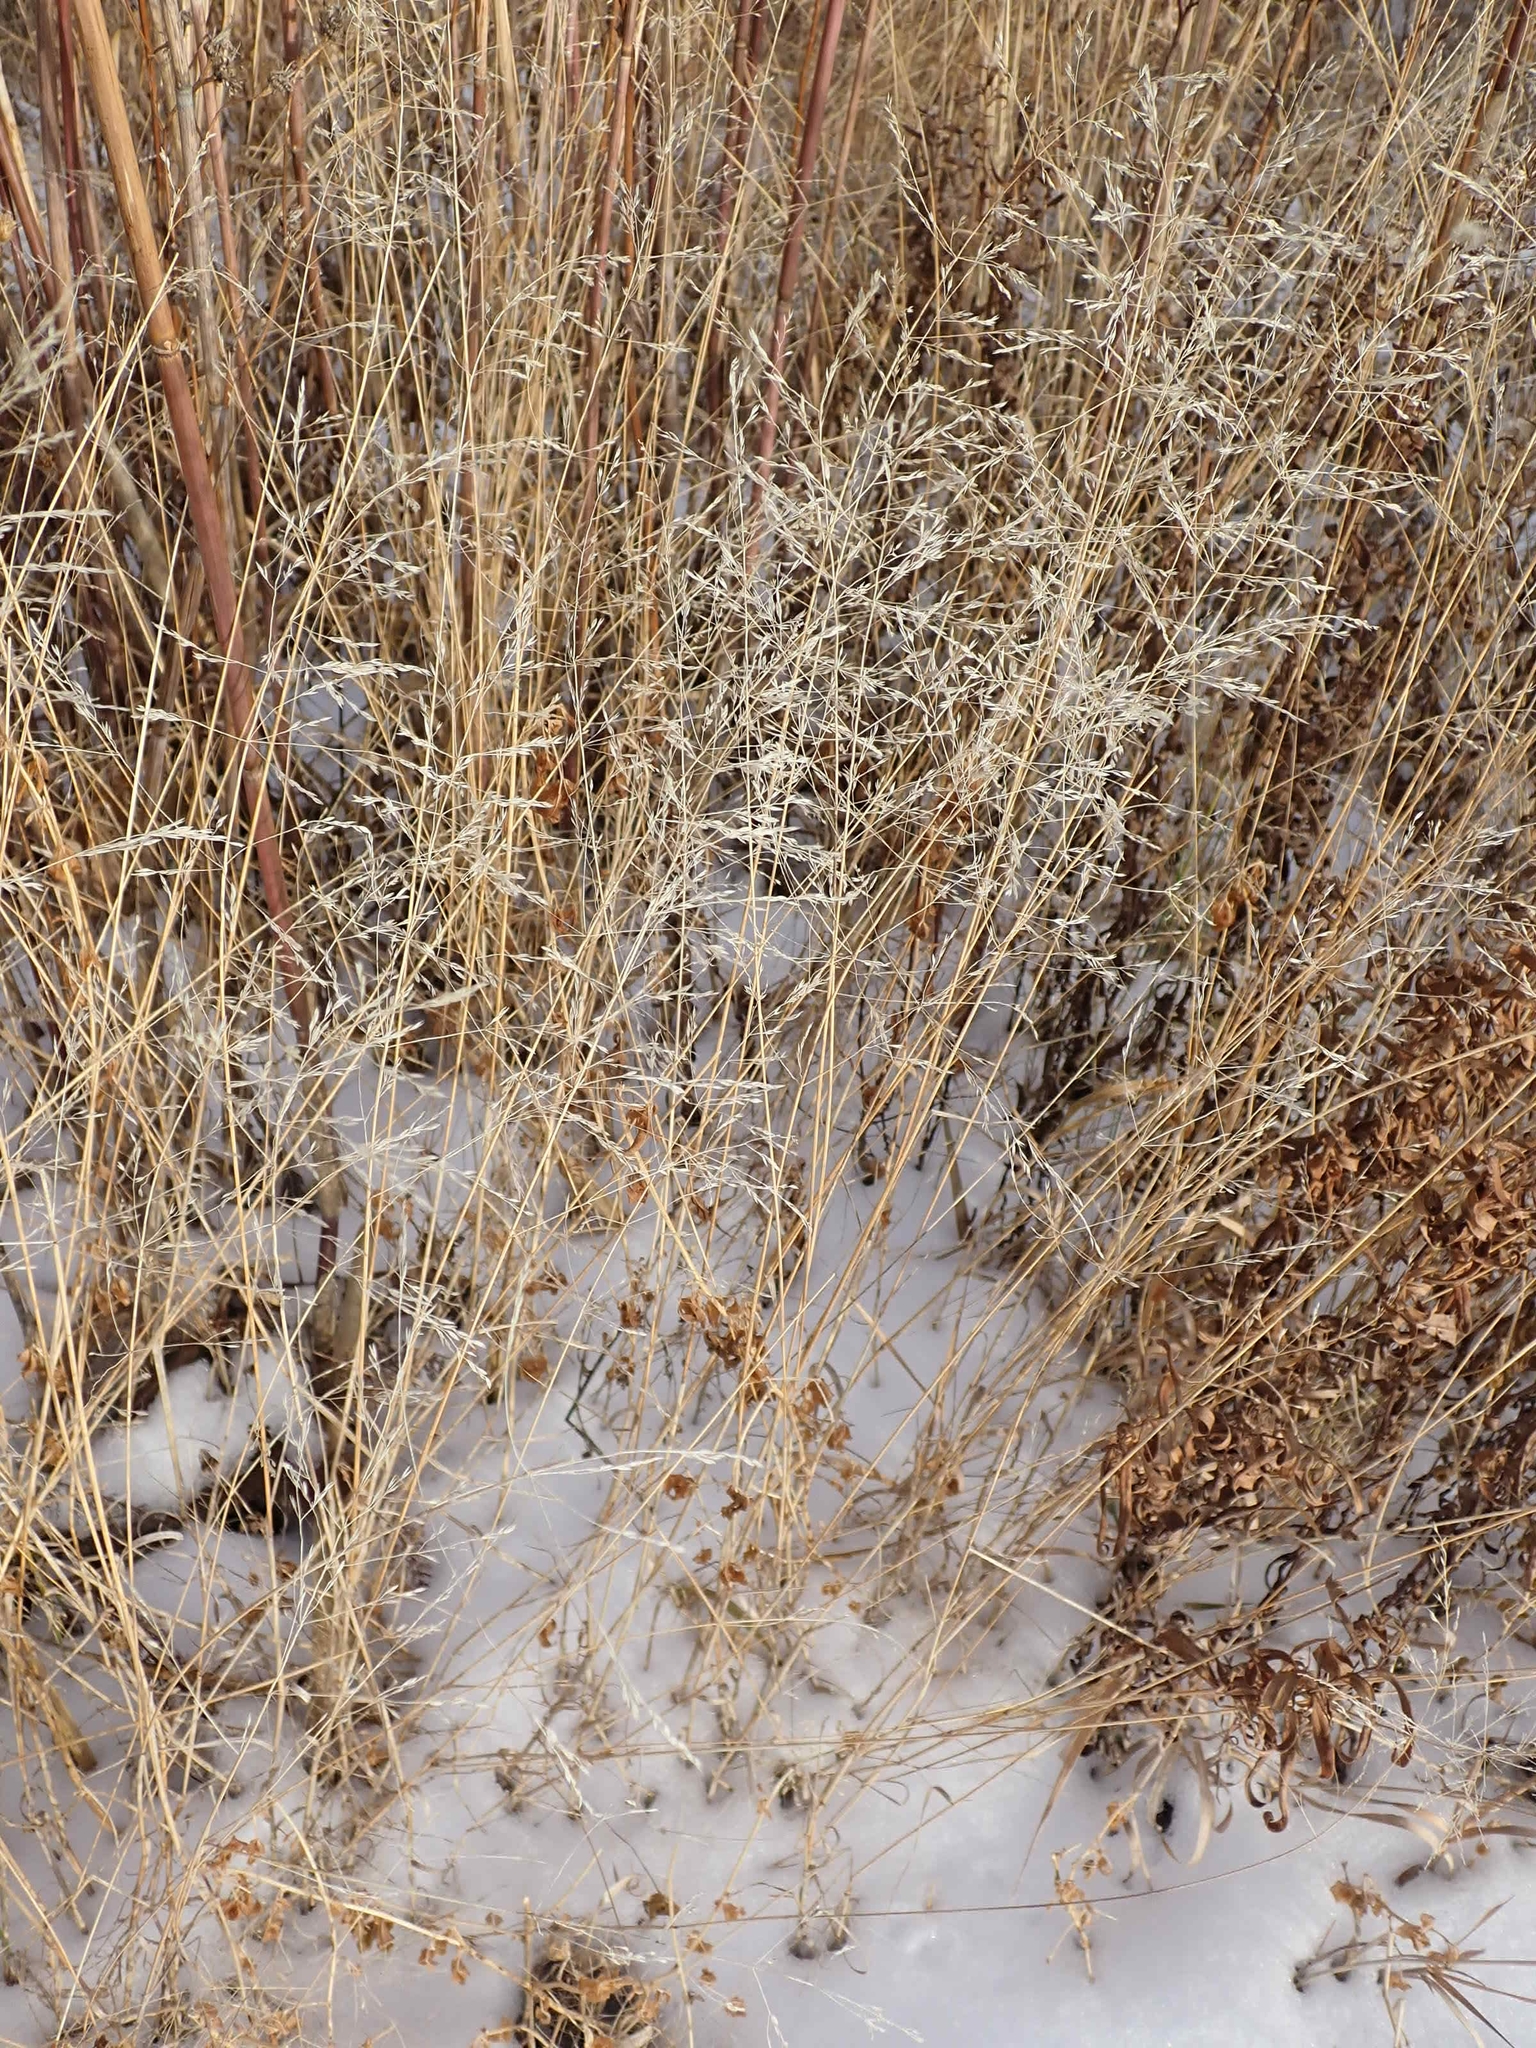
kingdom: Plantae
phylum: Tracheophyta
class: Liliopsida
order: Poales
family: Poaceae
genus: Deschampsia
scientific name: Deschampsia cespitosa
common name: Tufted hair-grass
